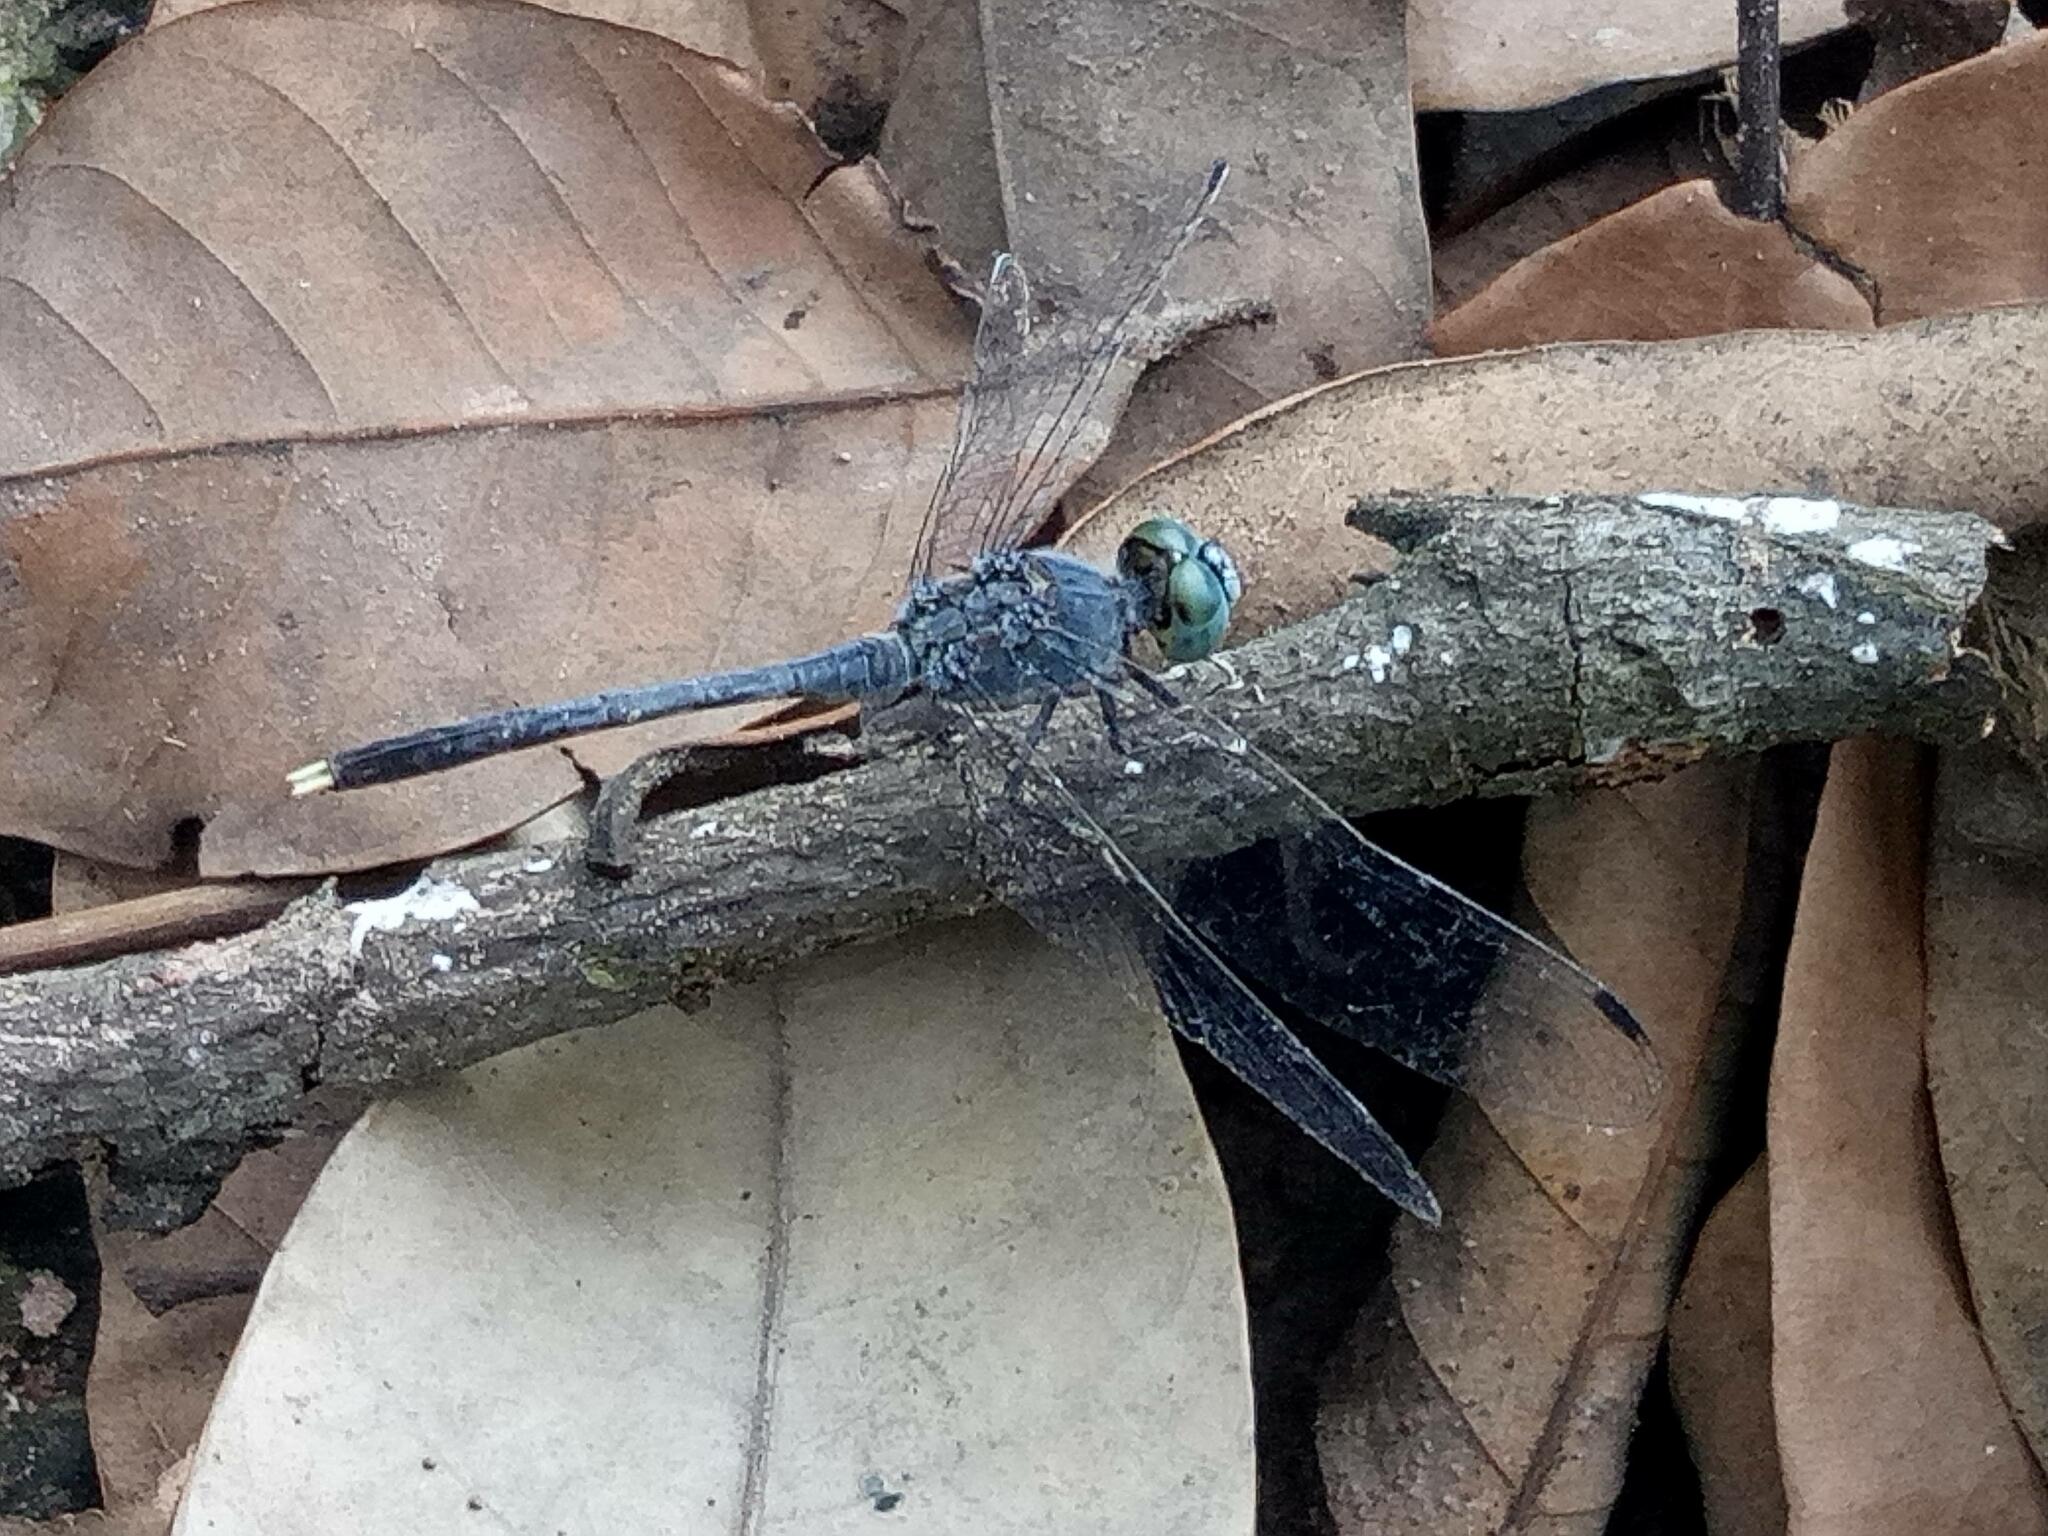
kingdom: Animalia
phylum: Arthropoda
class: Insecta
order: Odonata
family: Libellulidae
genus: Diplacodes
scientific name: Diplacodes trivialis
